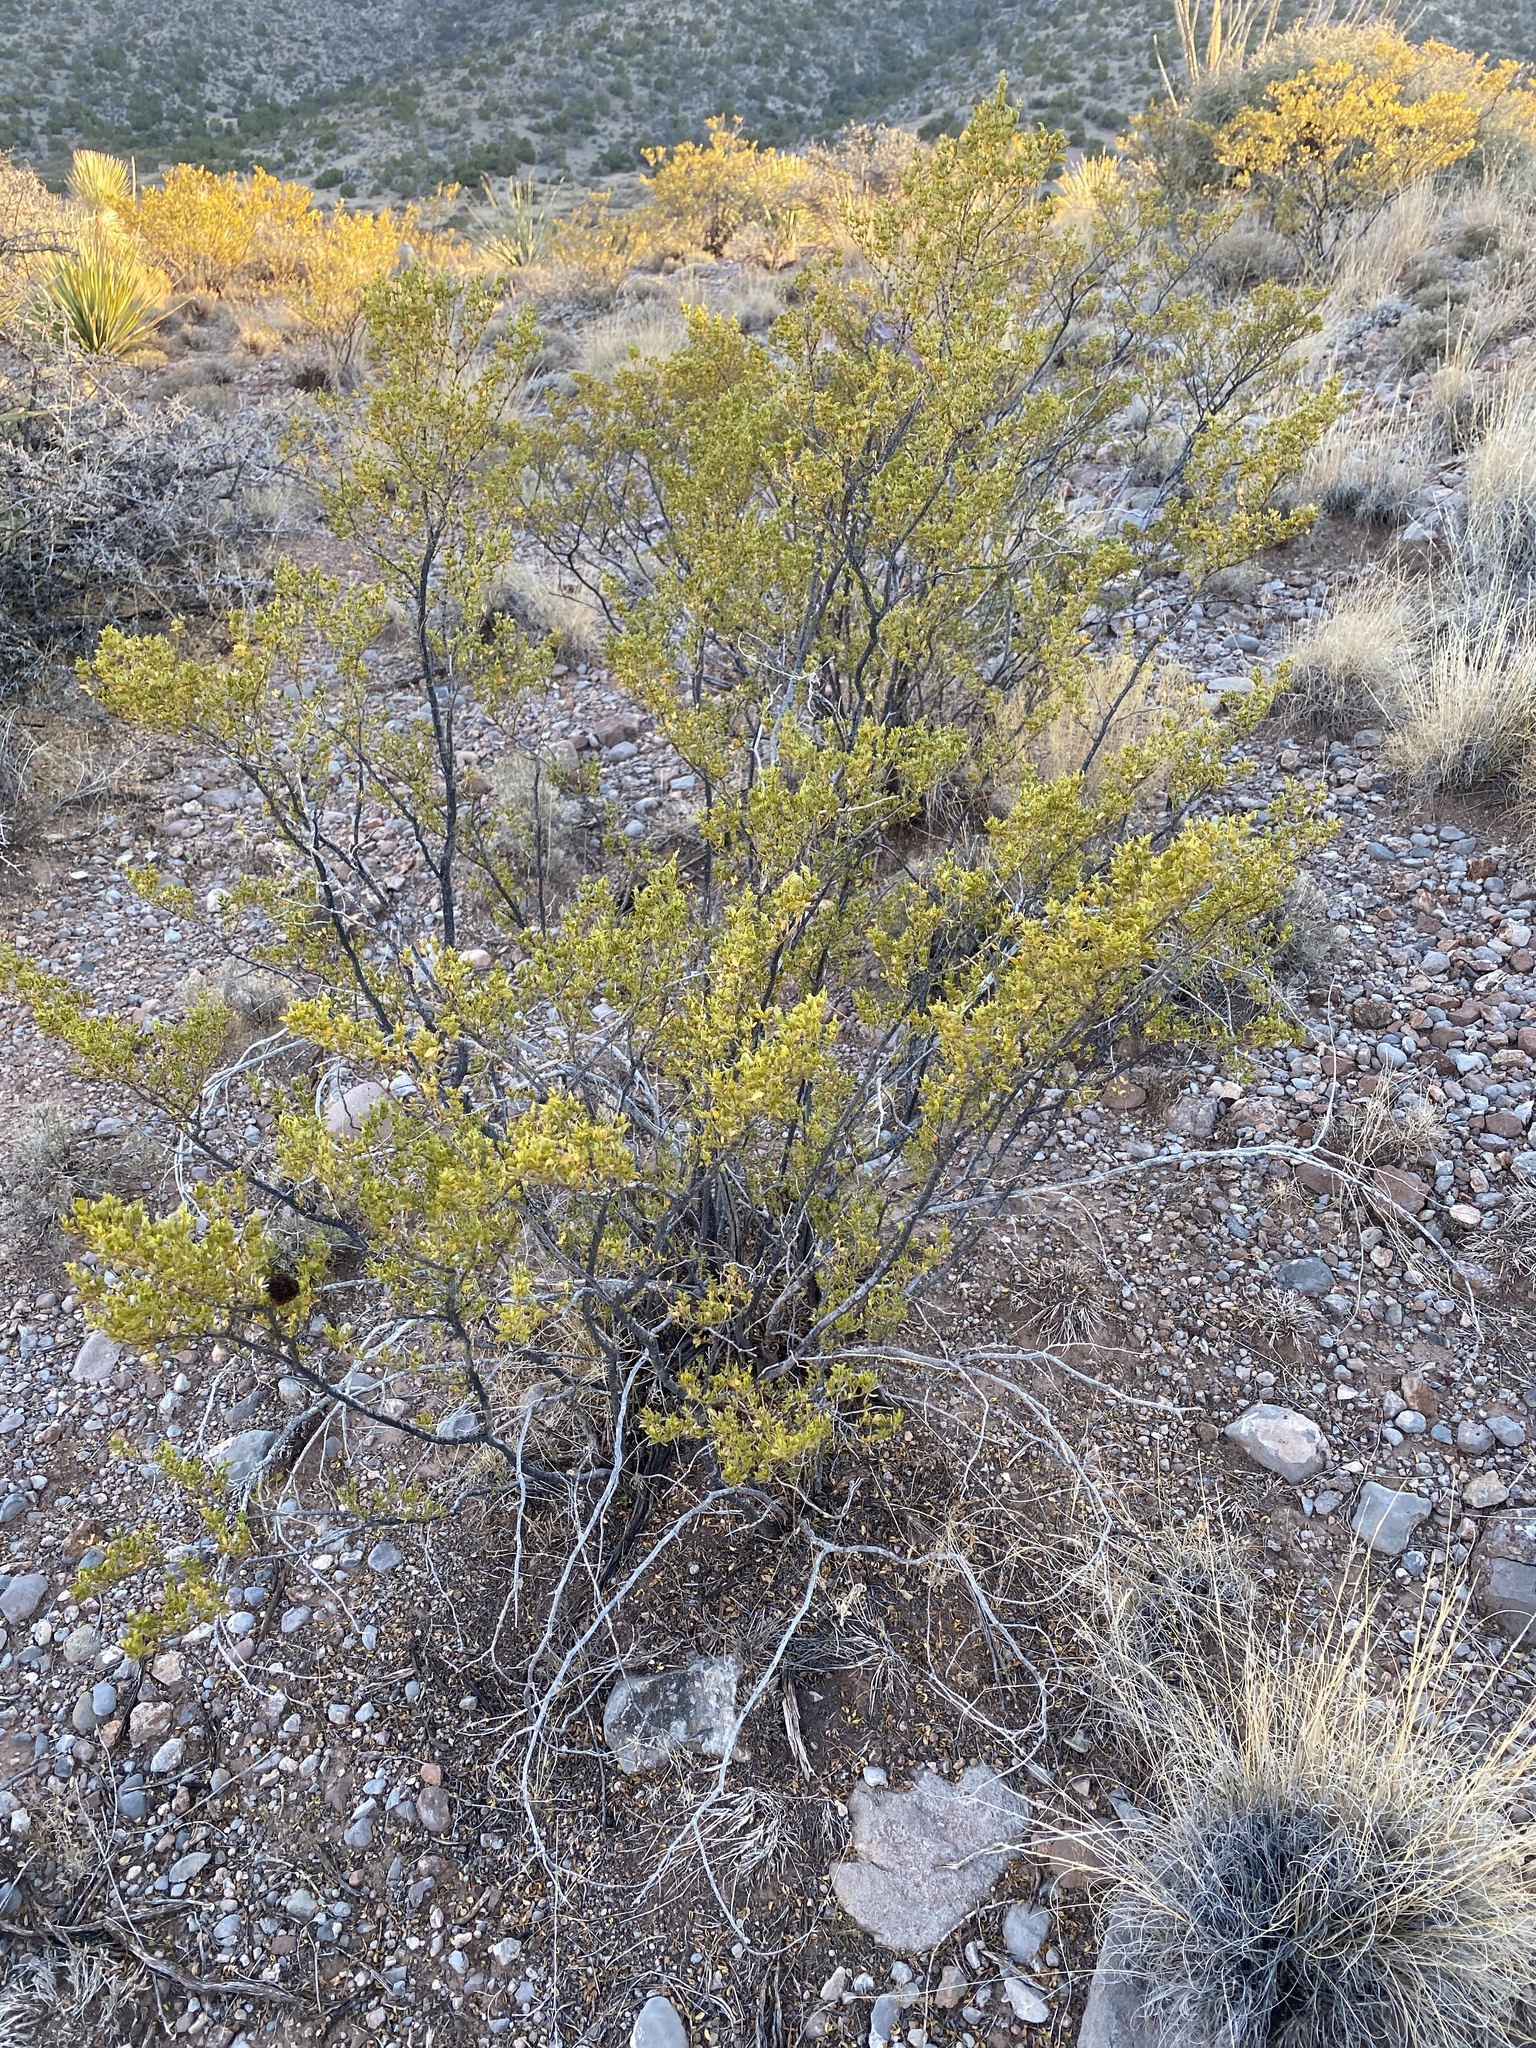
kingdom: Plantae
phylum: Tracheophyta
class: Magnoliopsida
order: Zygophyllales
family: Zygophyllaceae
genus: Larrea
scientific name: Larrea tridentata
